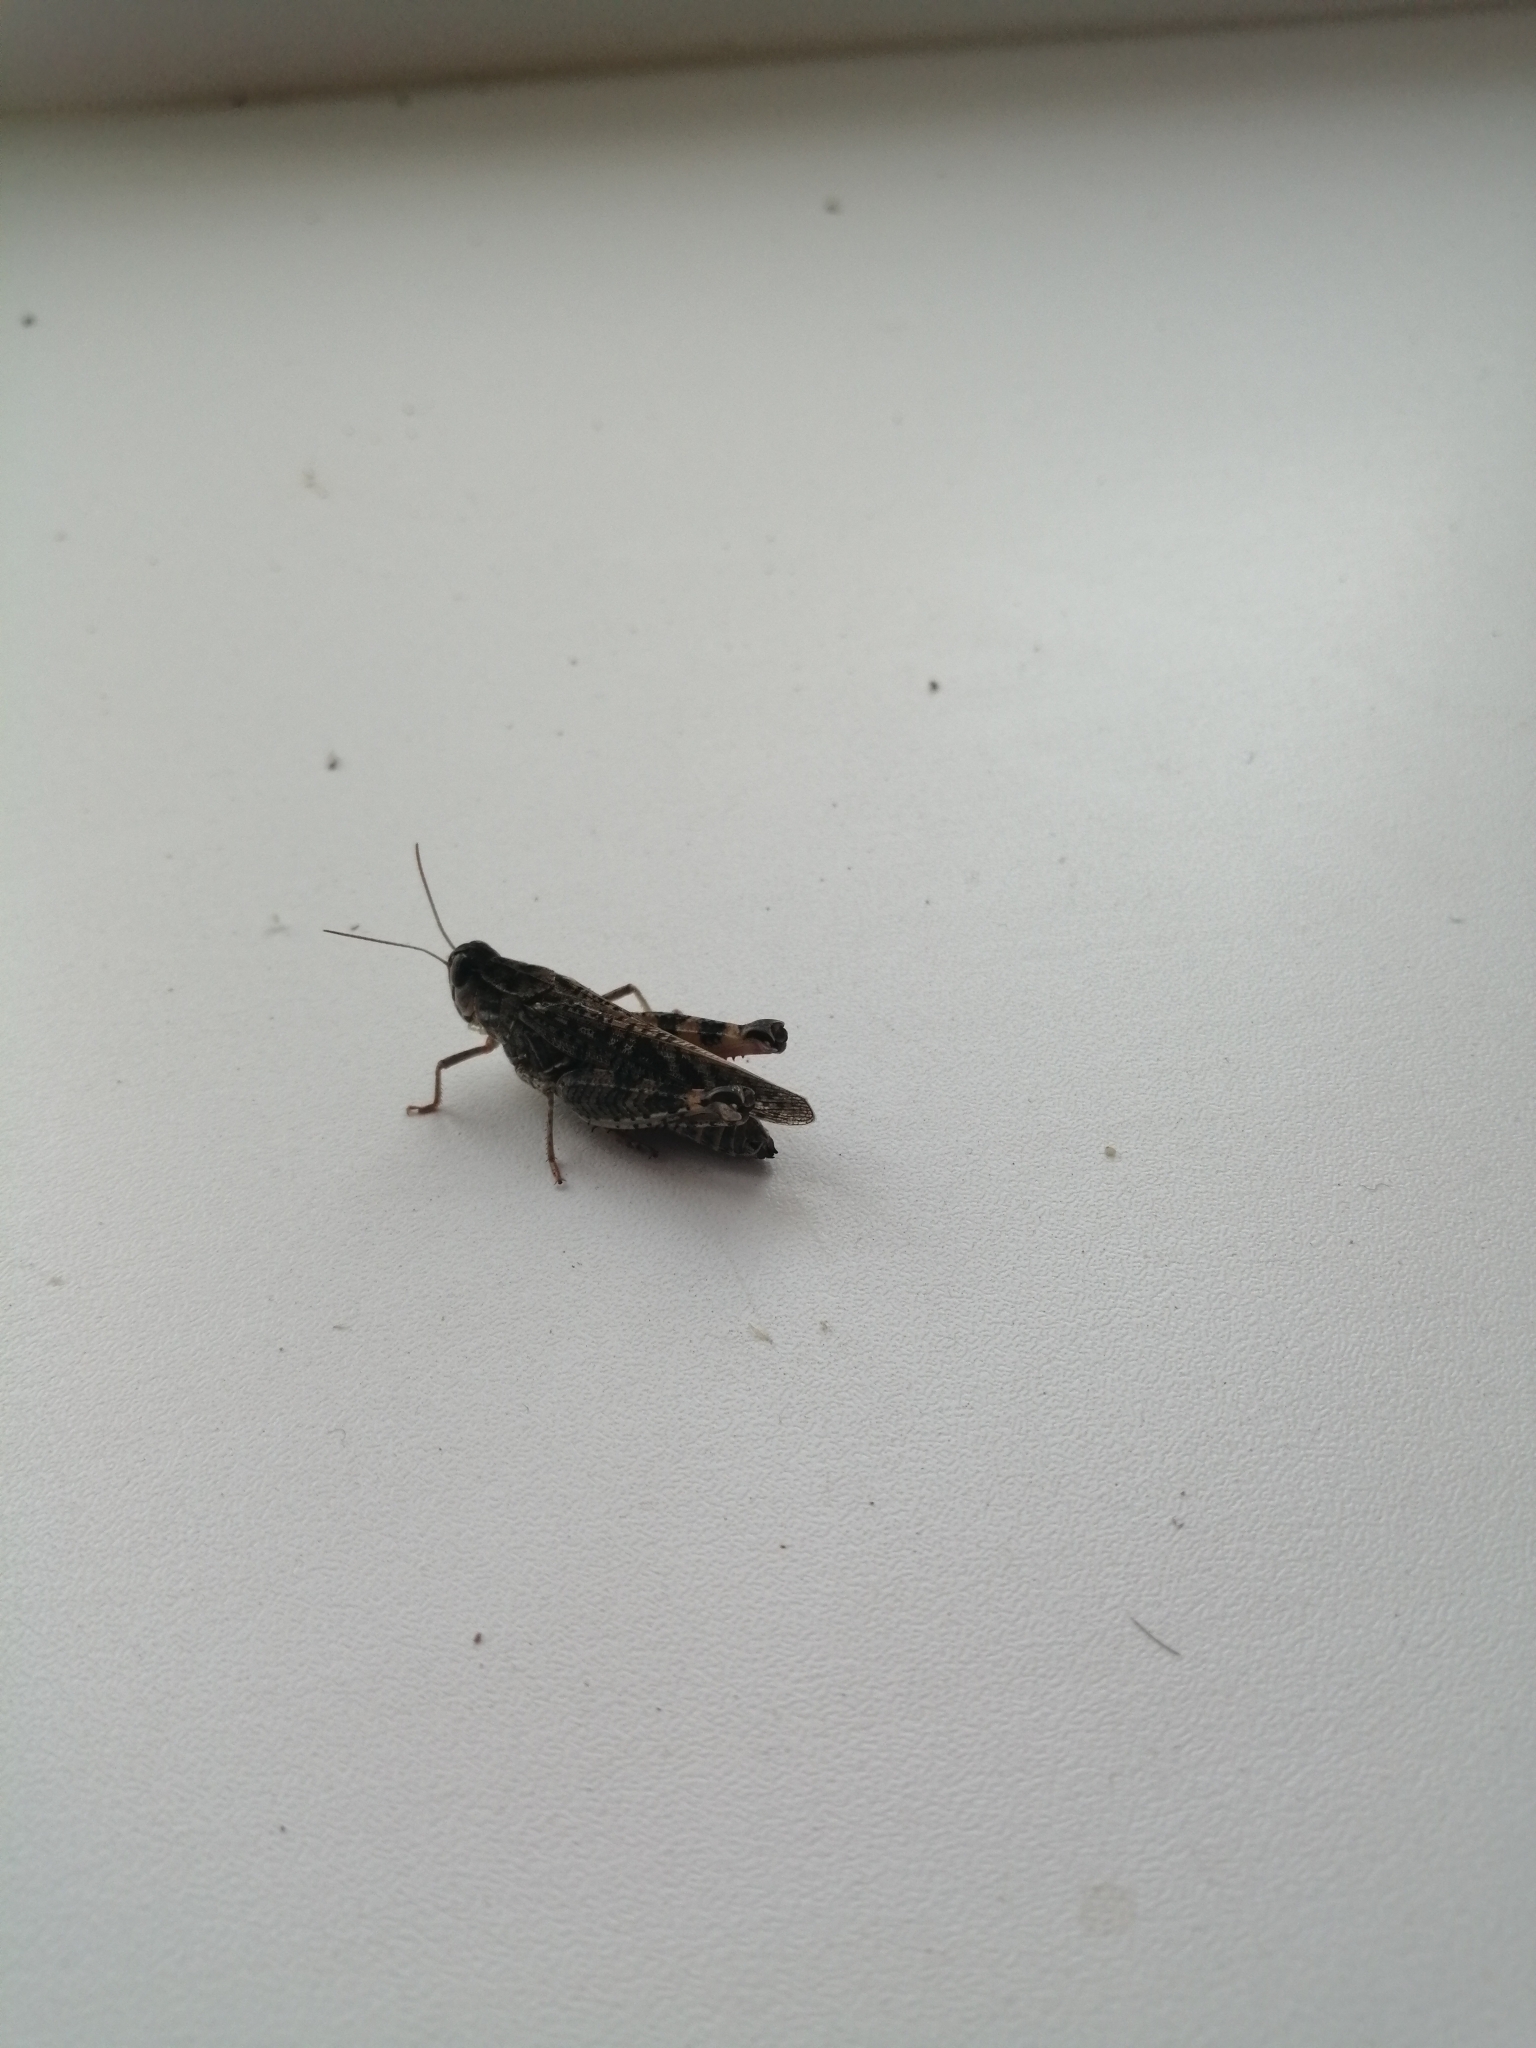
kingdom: Animalia
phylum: Arthropoda
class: Insecta
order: Orthoptera
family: Acrididae
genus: Calliptamus
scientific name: Calliptamus italicus
